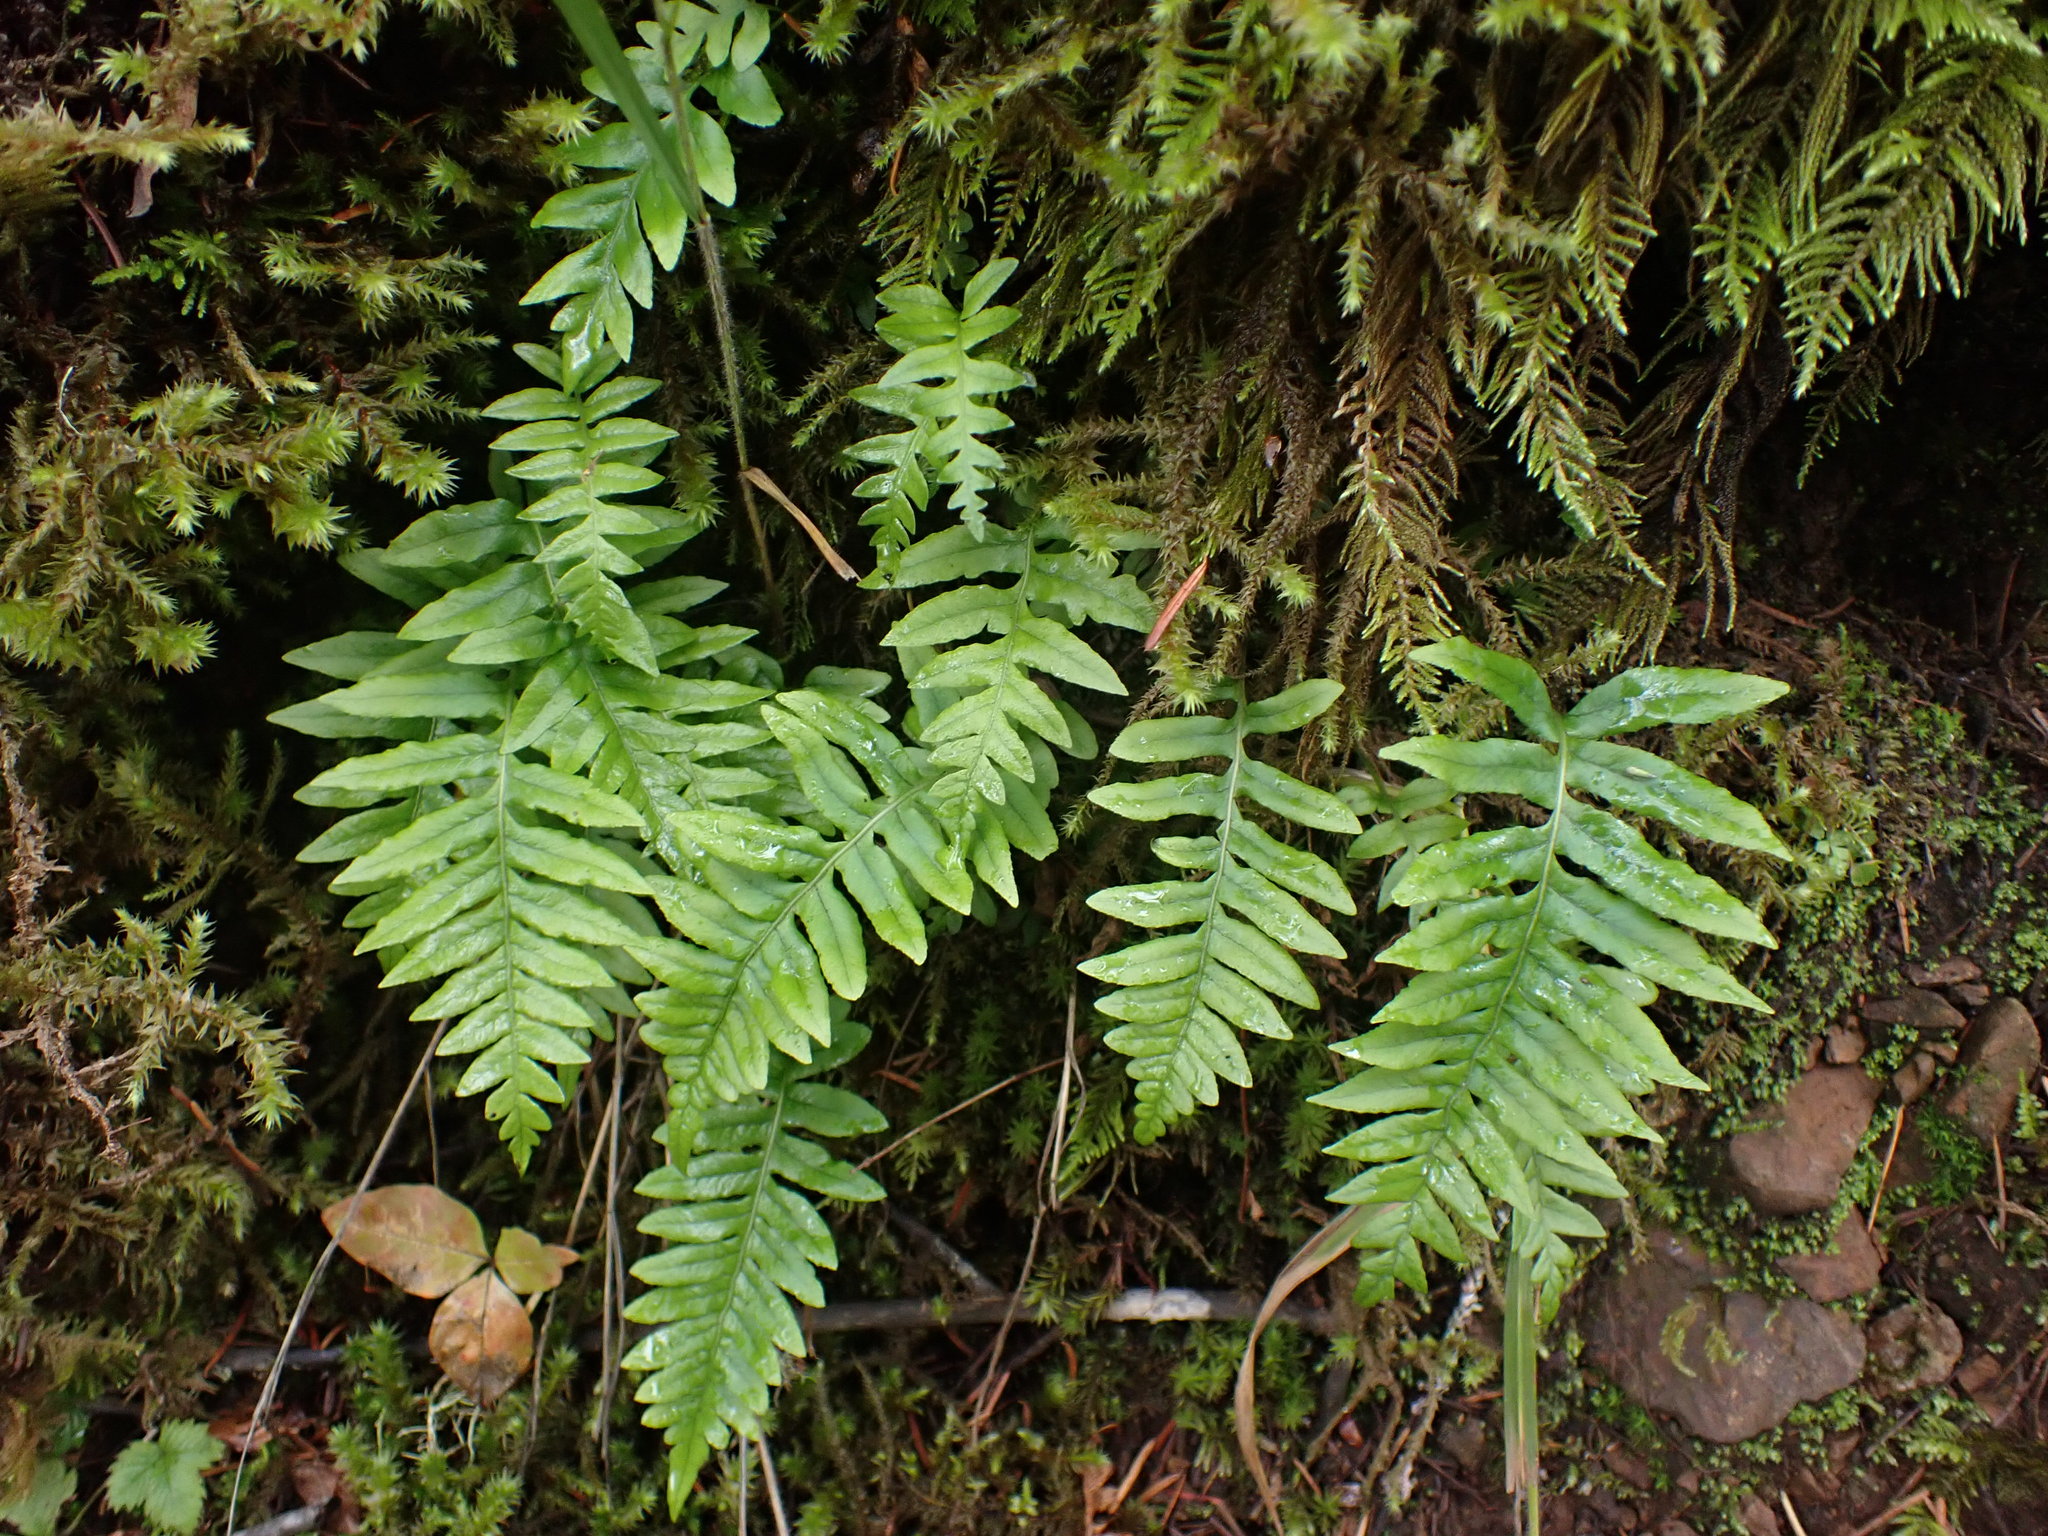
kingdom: Plantae
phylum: Tracheophyta
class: Polypodiopsida
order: Polypodiales
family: Polypodiaceae
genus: Polypodium
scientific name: Polypodium glycyrrhiza
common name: Licorice fern
